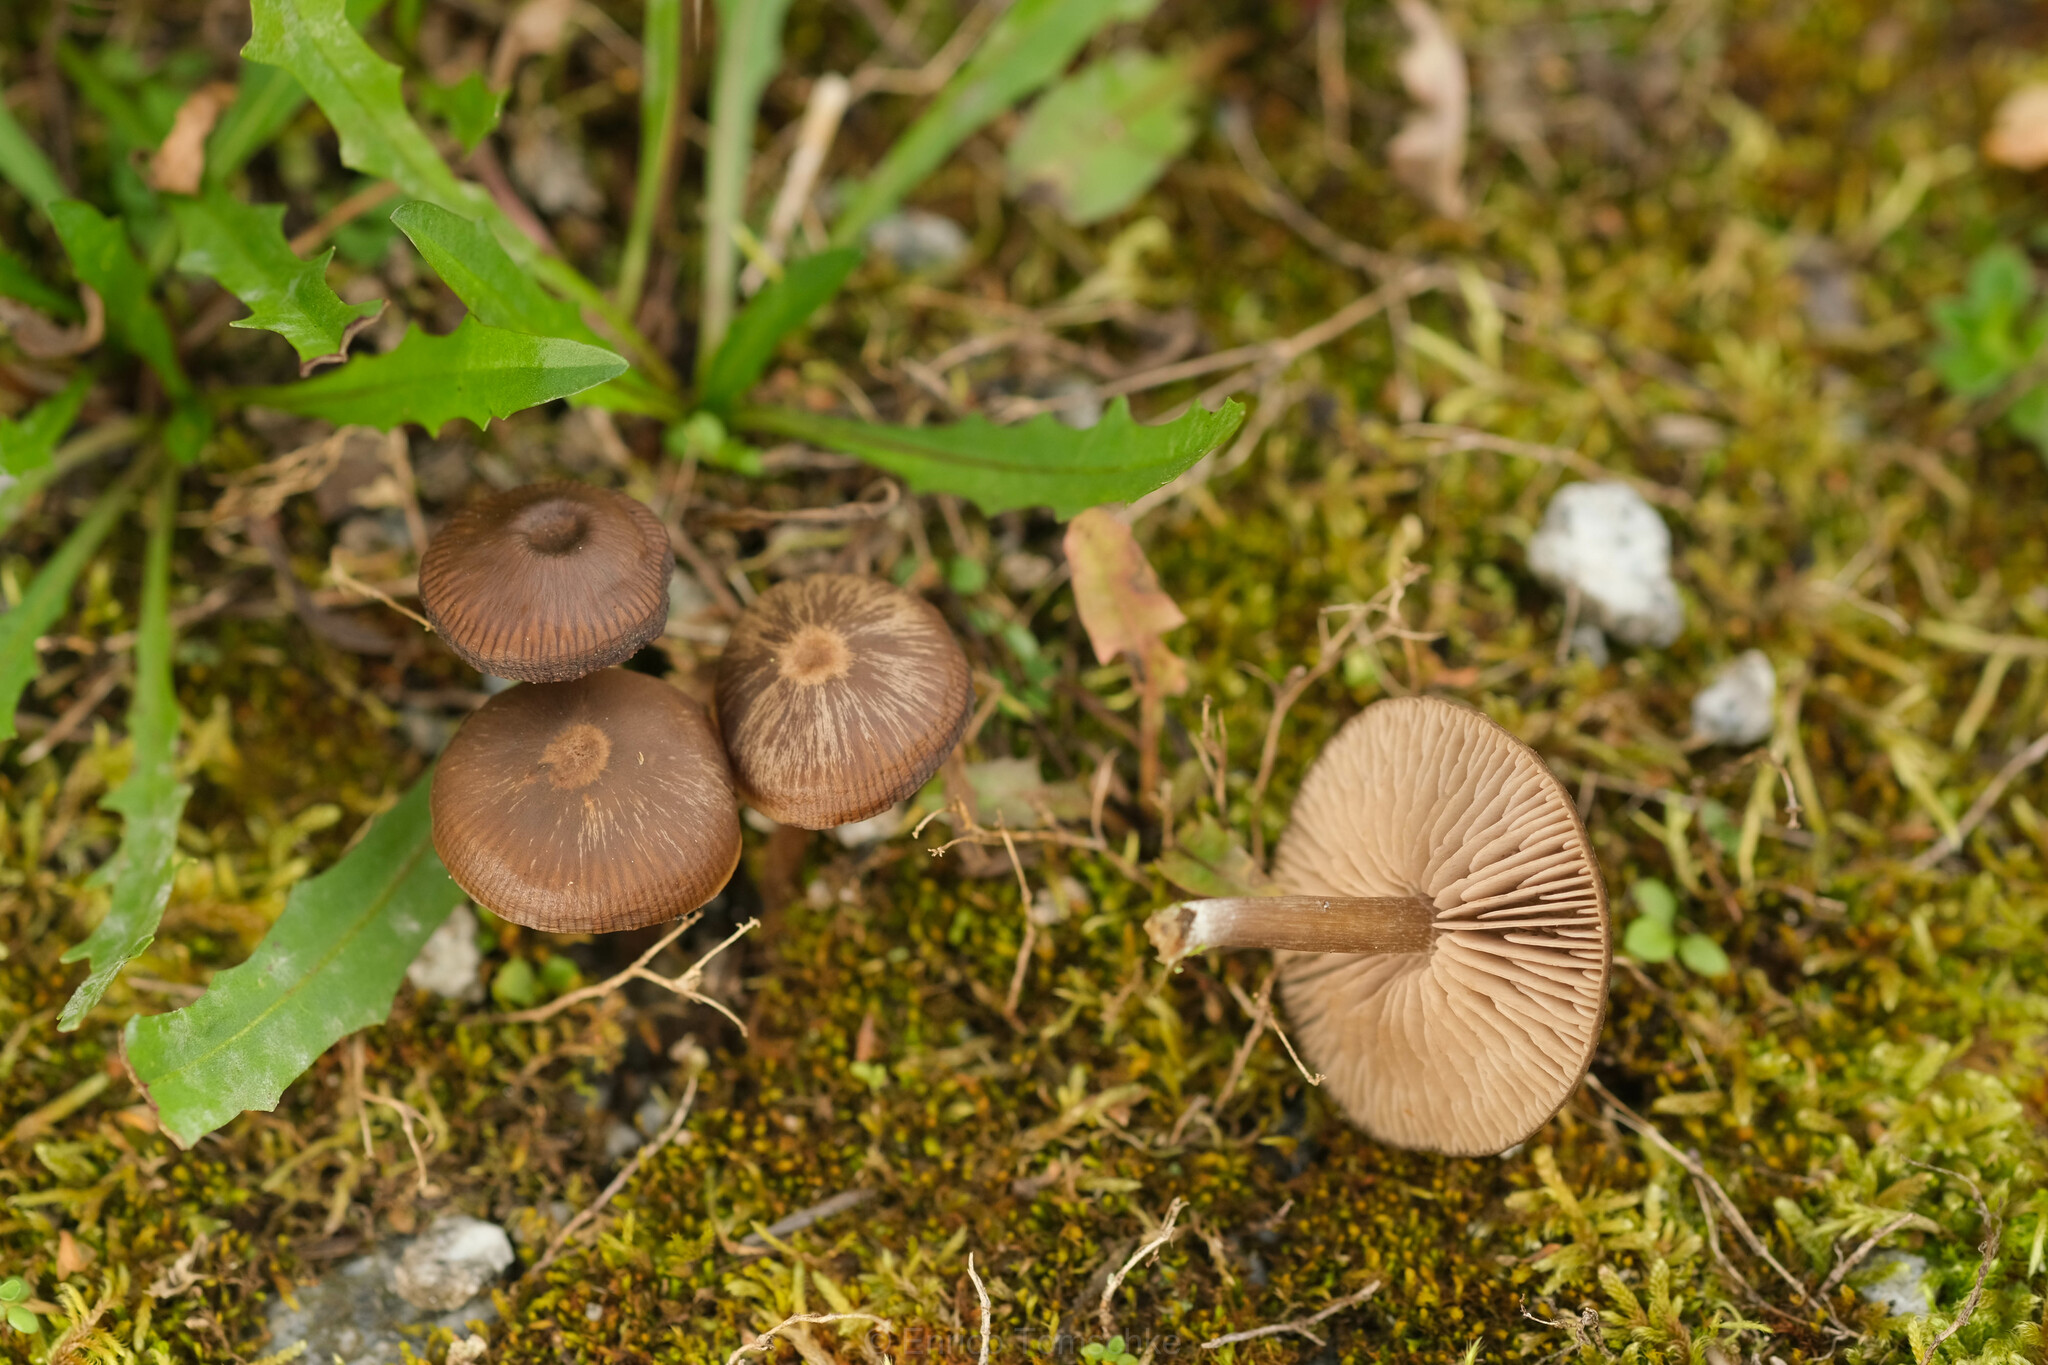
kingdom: Fungi
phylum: Basidiomycota
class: Agaricomycetes
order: Agaricales
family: Entolomataceae
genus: Entoloma
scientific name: Entoloma sericeum
